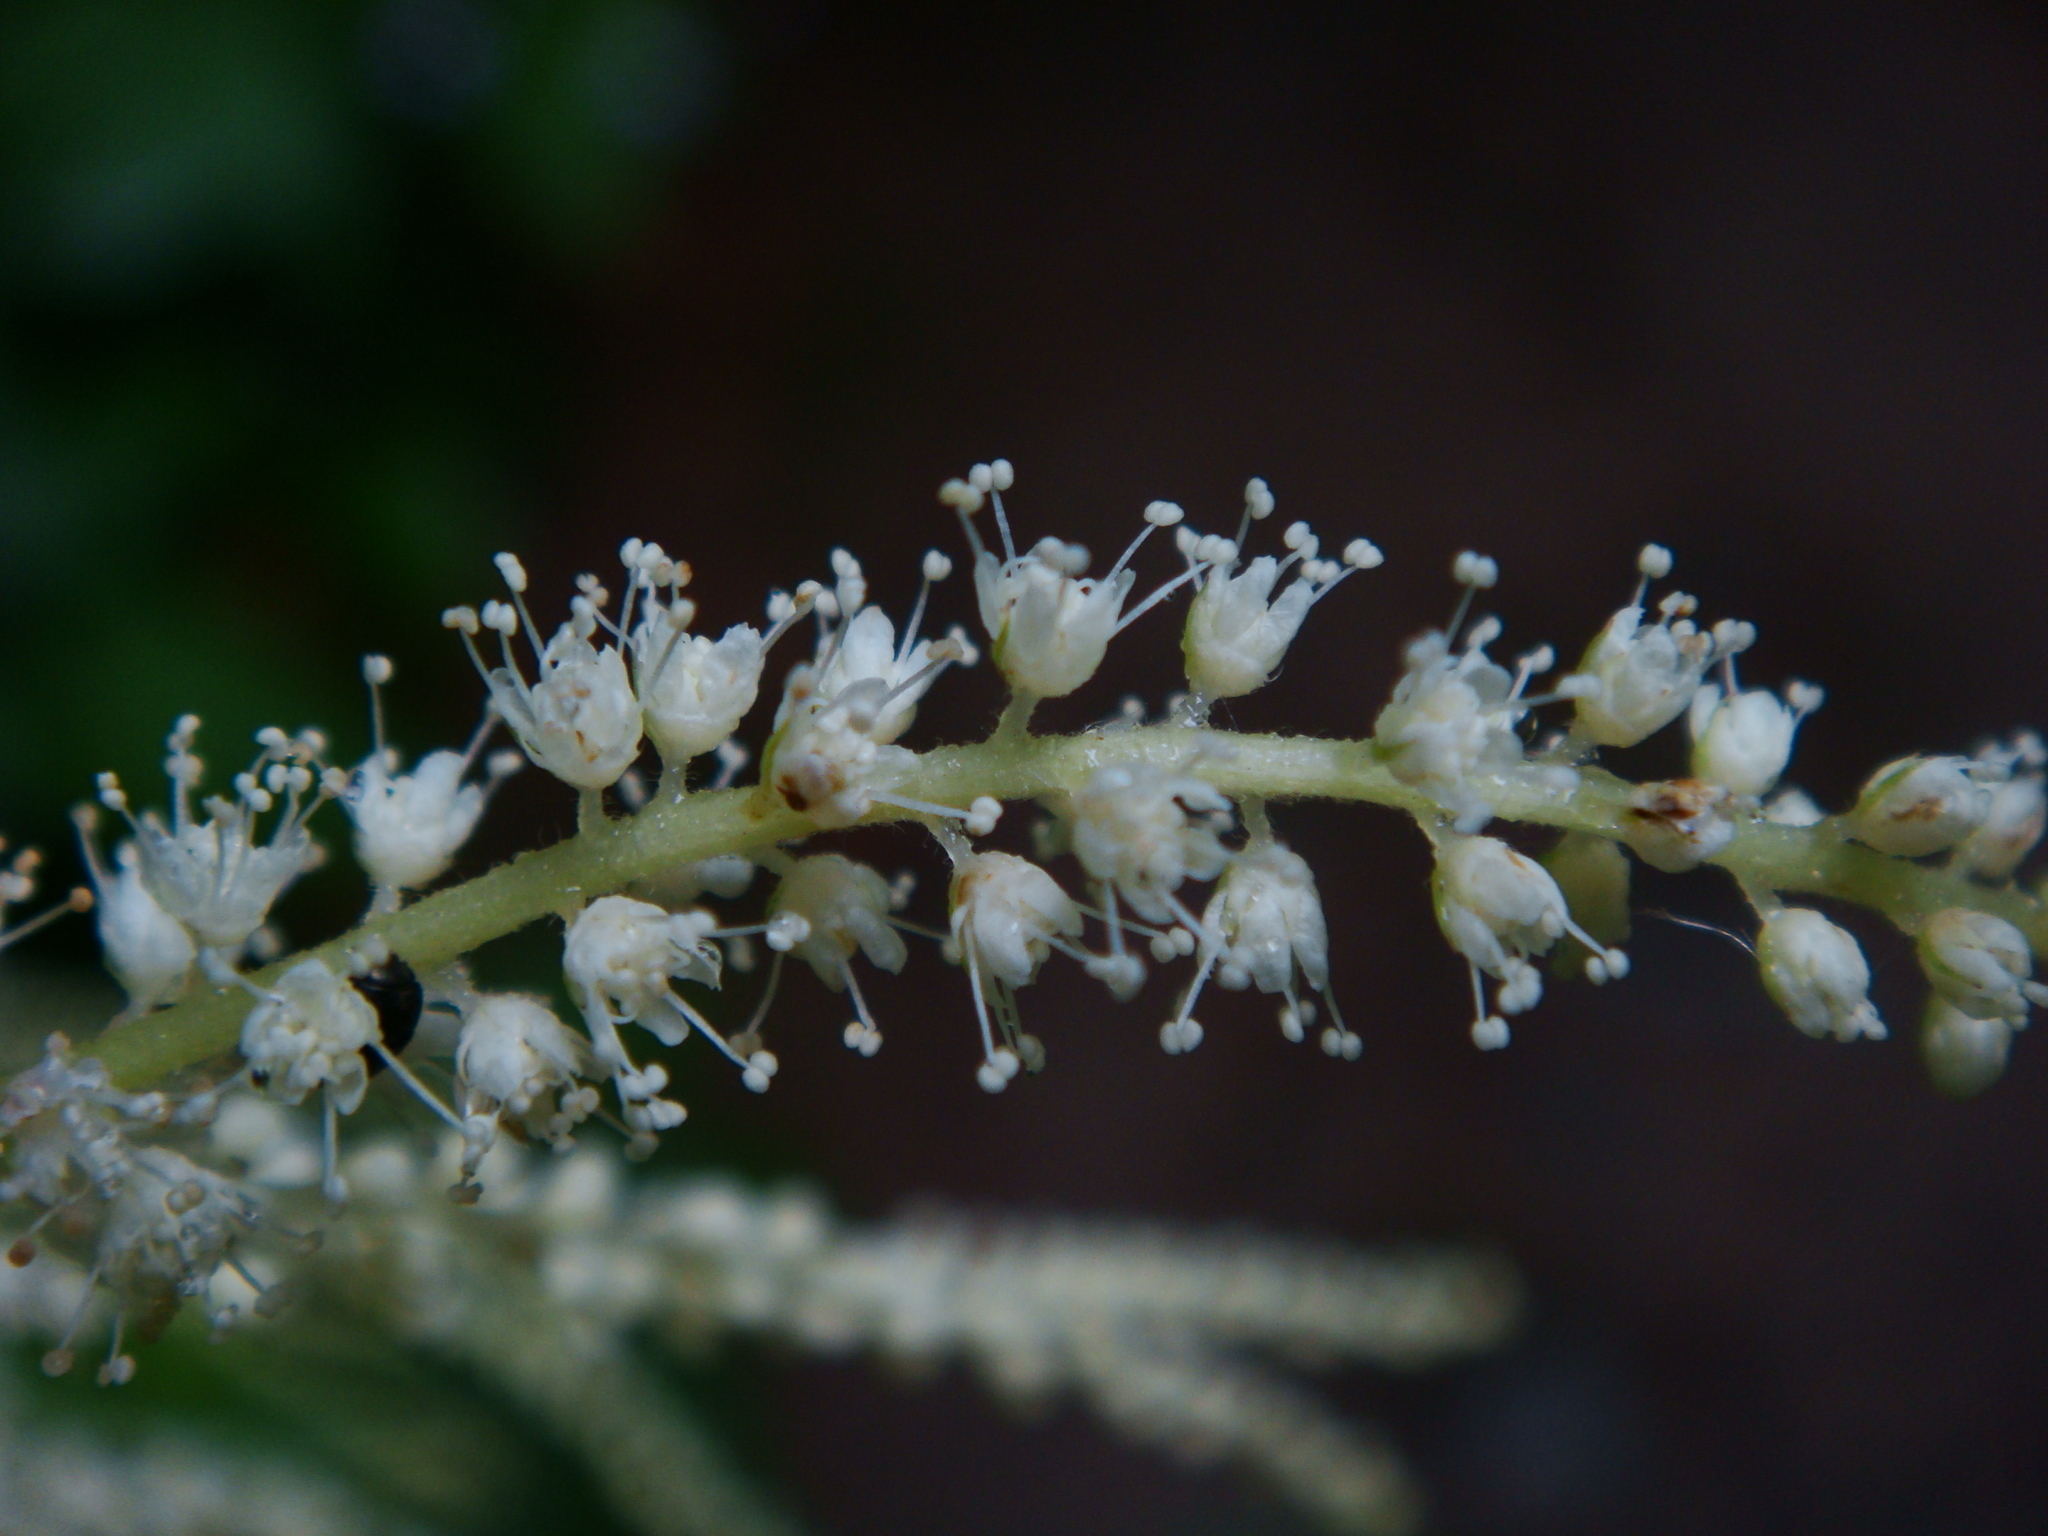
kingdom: Plantae
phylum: Tracheophyta
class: Magnoliopsida
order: Rosales
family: Rosaceae
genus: Aruncus
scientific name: Aruncus dioicus
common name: Buck's-beard
